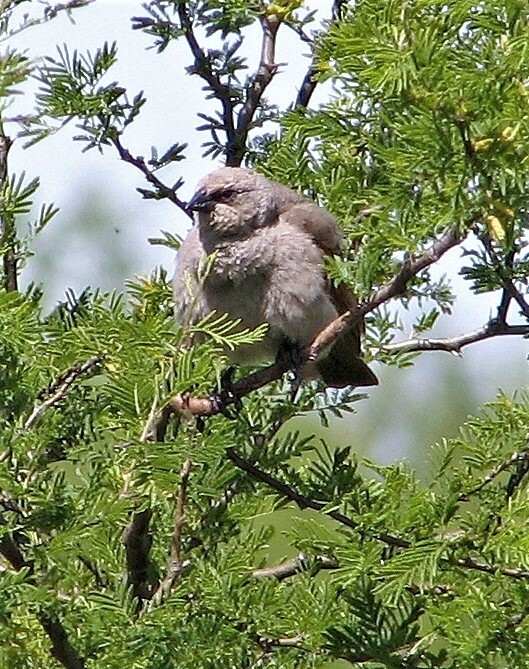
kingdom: Animalia
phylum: Chordata
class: Aves
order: Passeriformes
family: Icteridae
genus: Agelaioides
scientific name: Agelaioides badius
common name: Baywing
